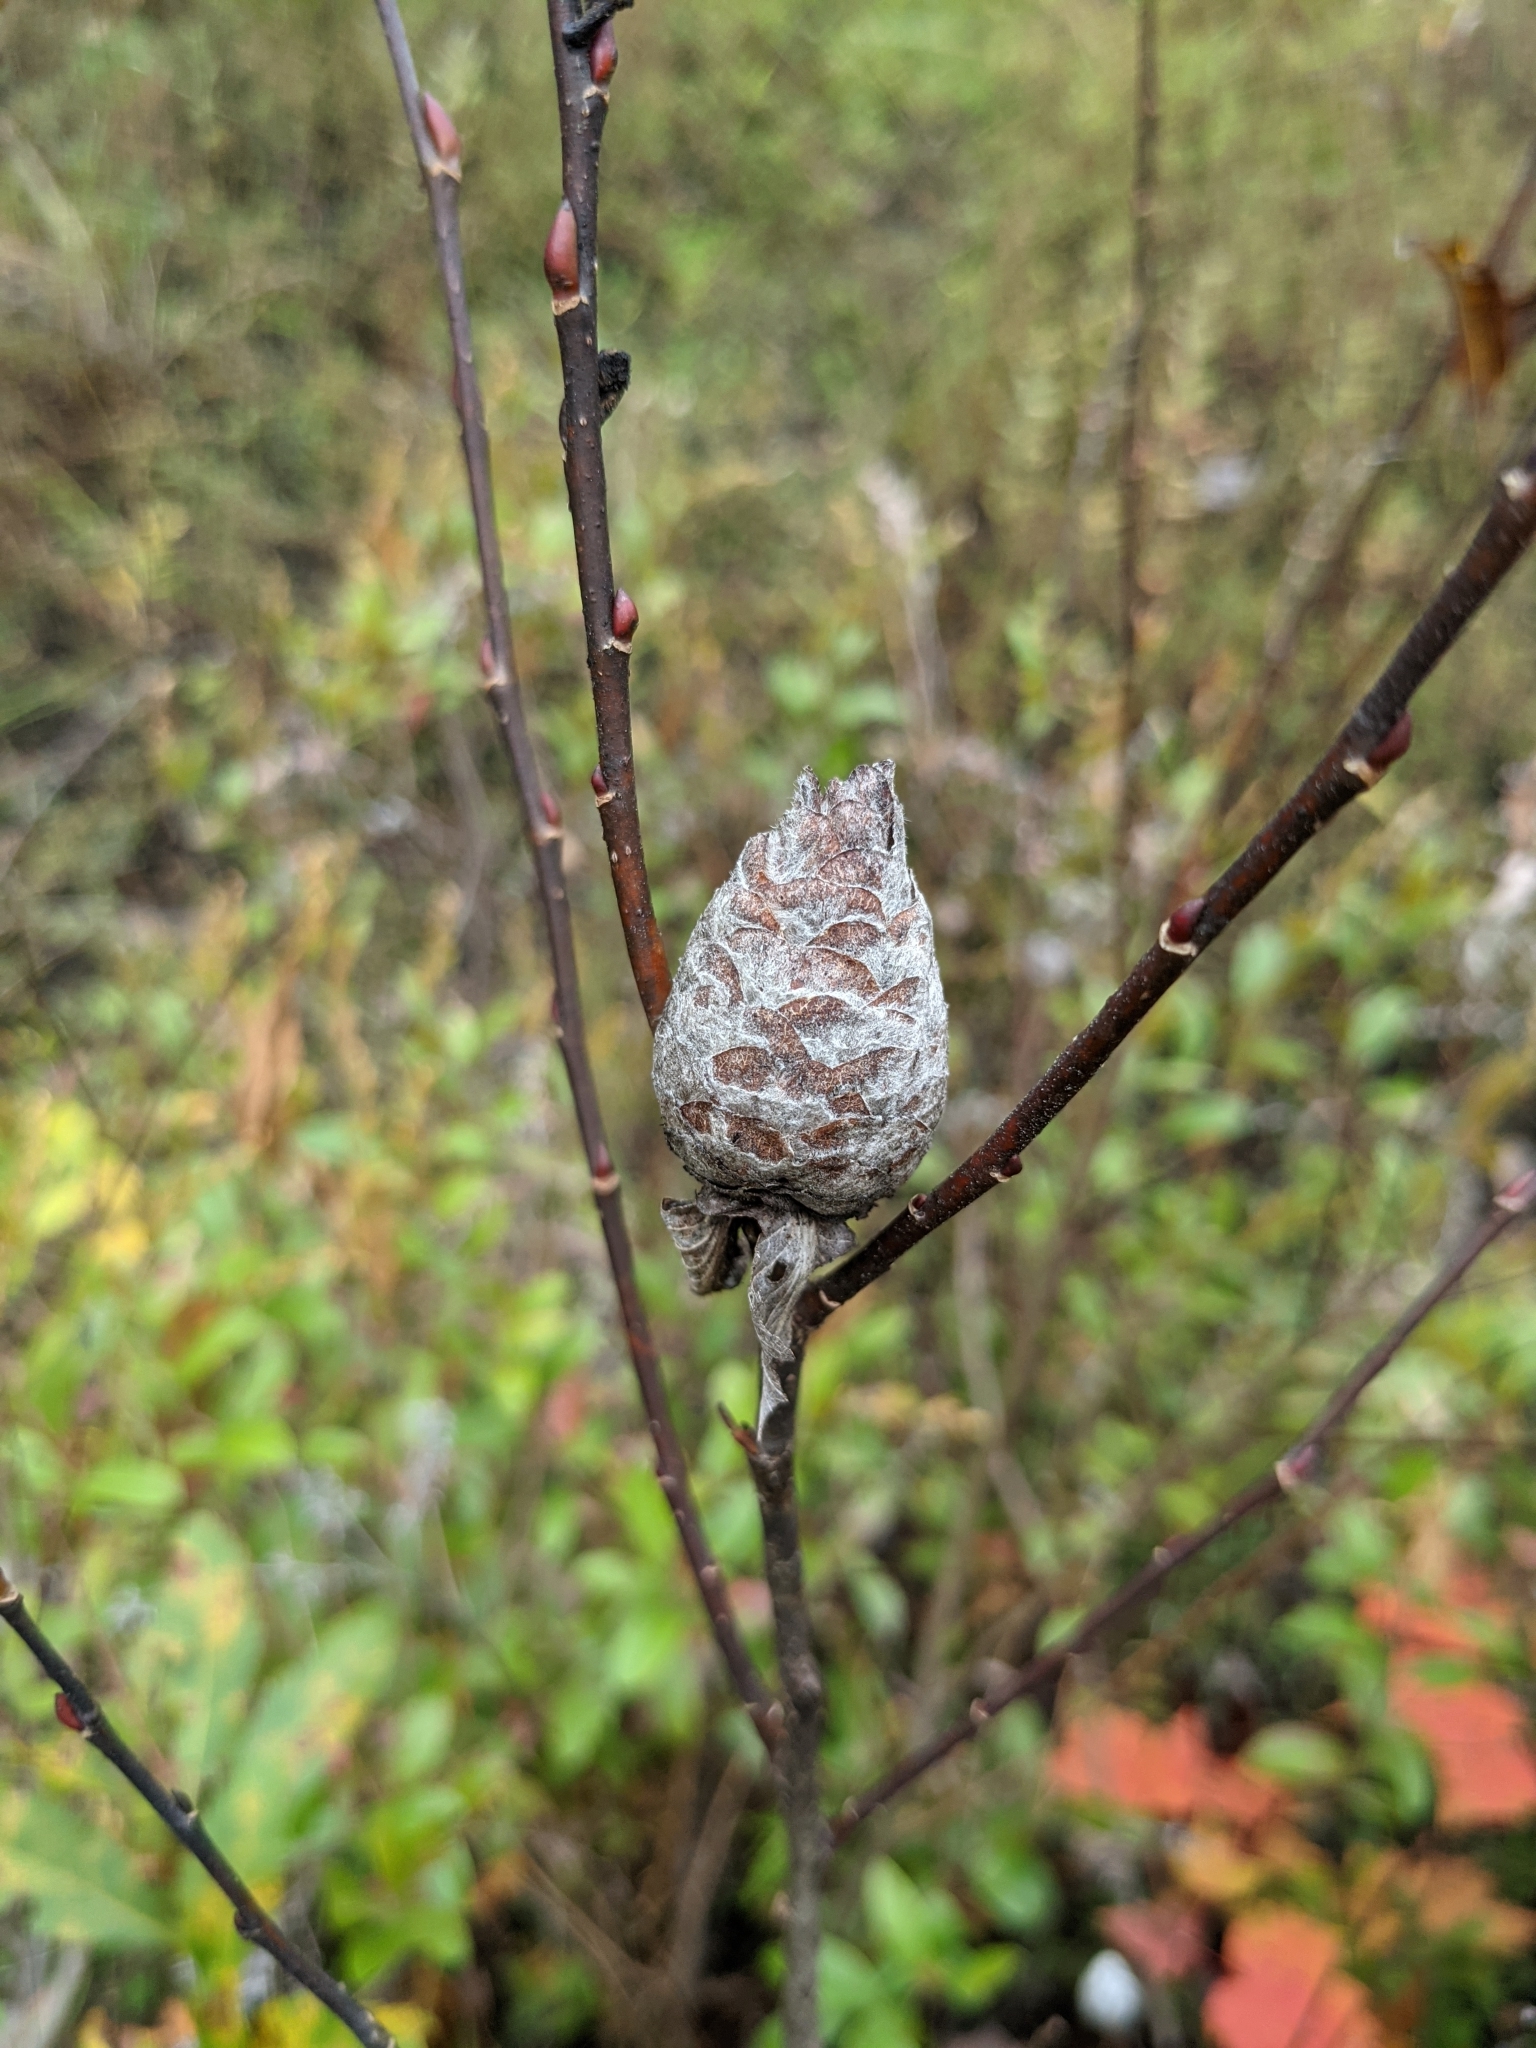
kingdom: Animalia
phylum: Arthropoda
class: Insecta
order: Diptera
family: Cecidomyiidae
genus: Rabdophaga
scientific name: Rabdophaga strobiloides
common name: Willow pinecone gall midge
